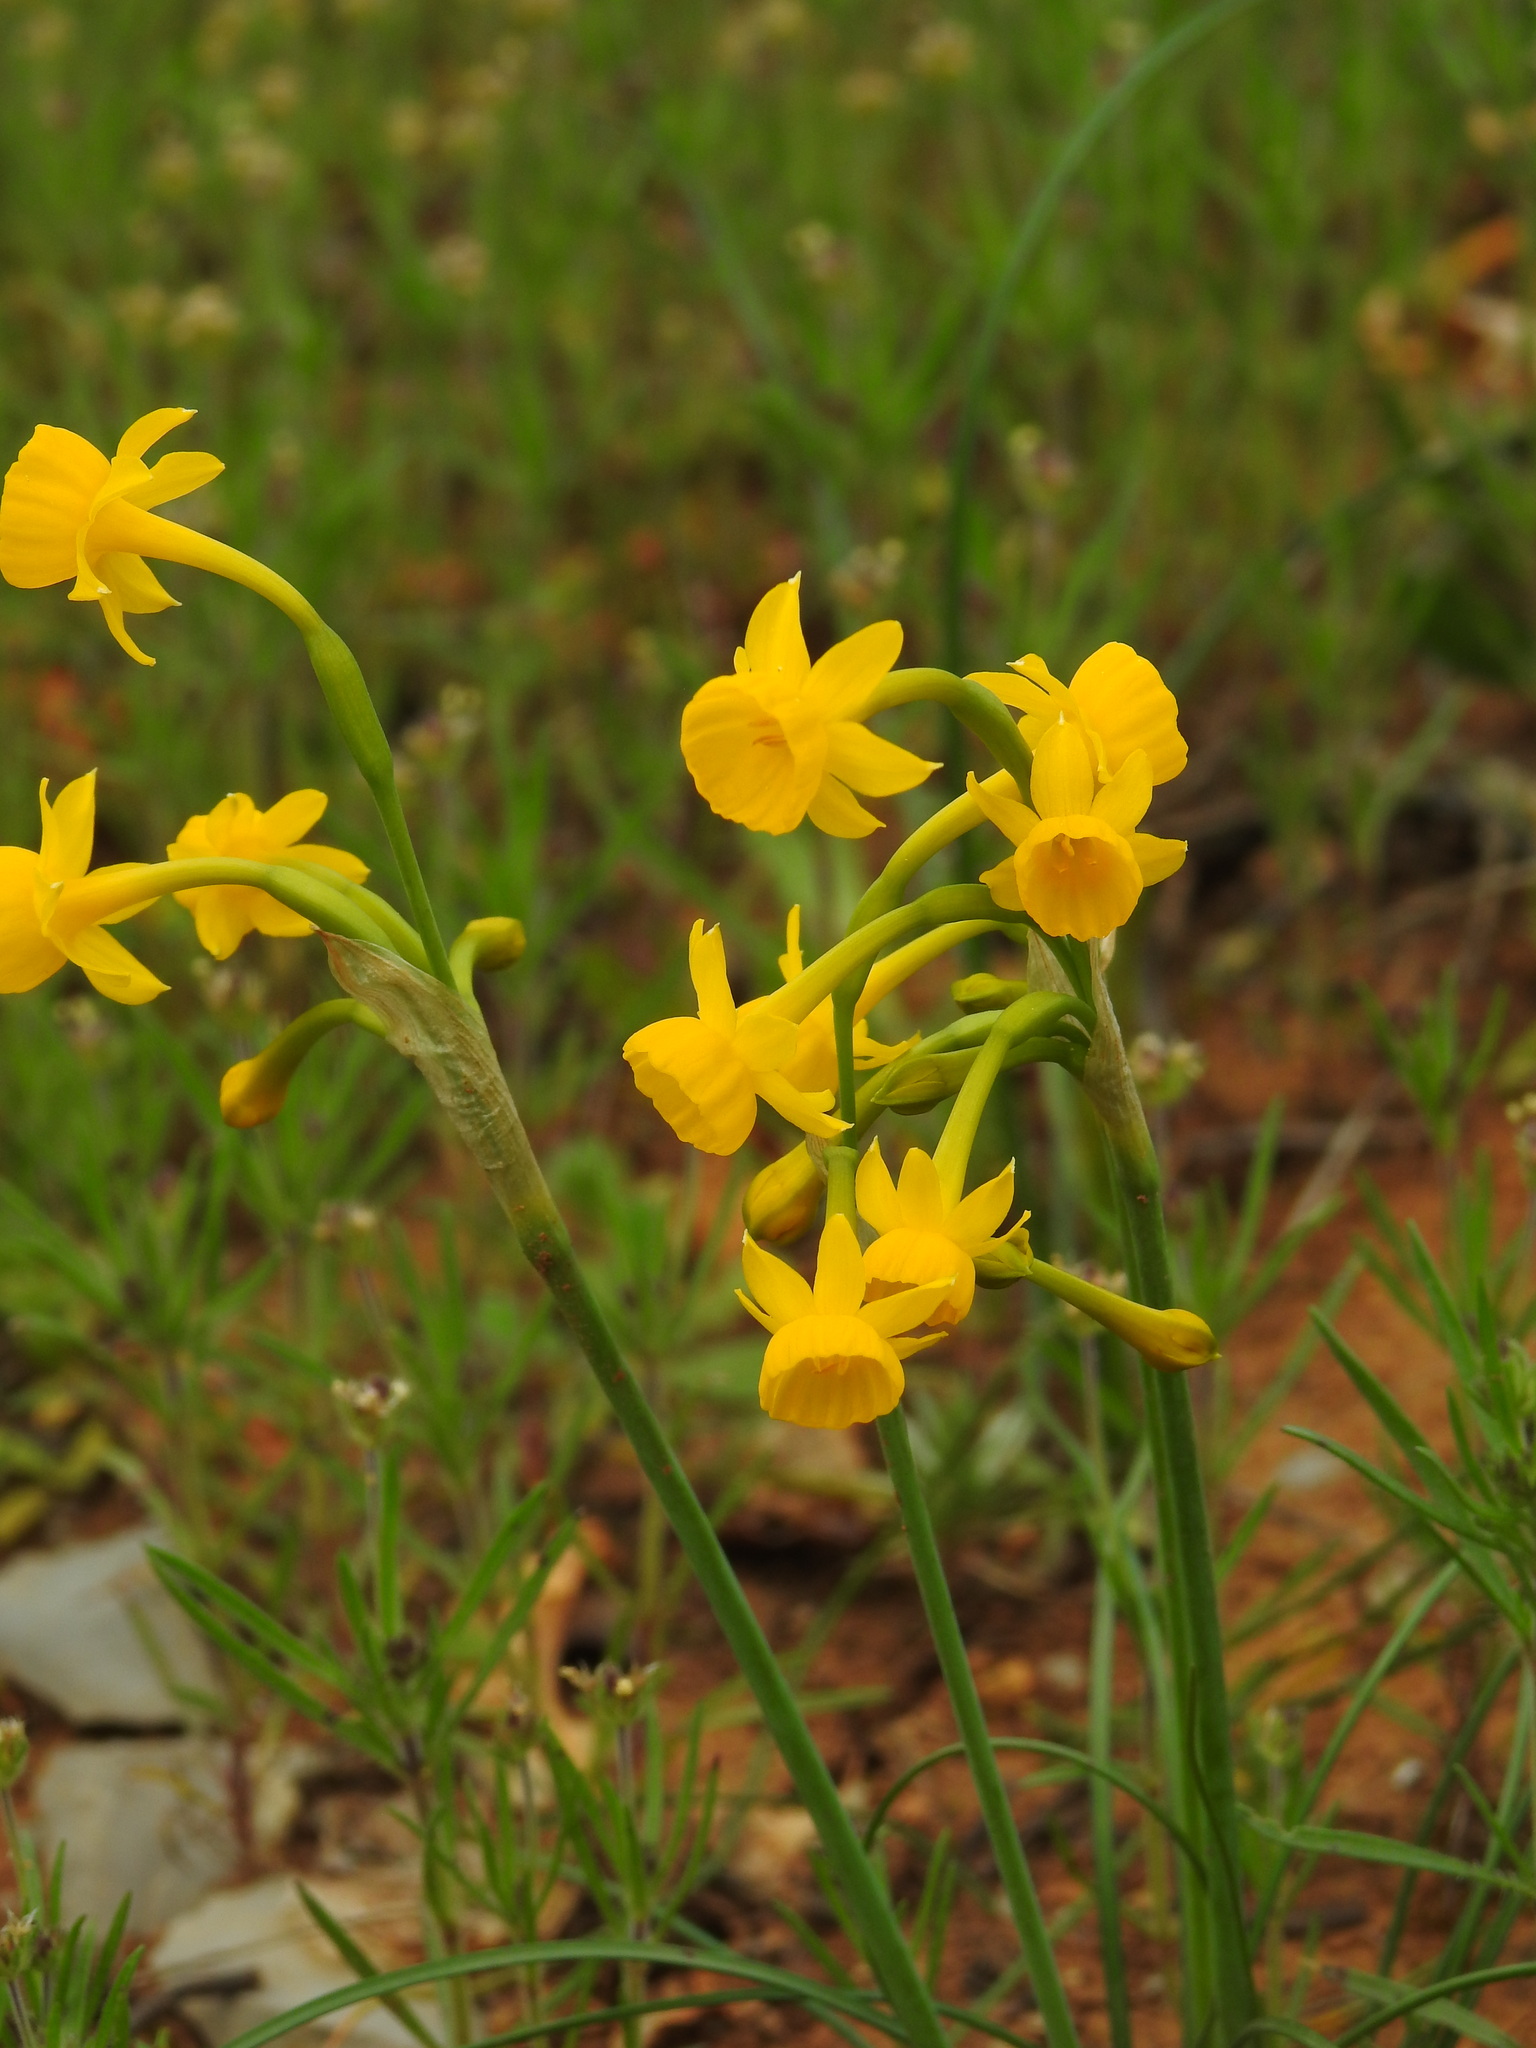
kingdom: Plantae
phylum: Tracheophyta
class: Liliopsida
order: Asparagales
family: Amaryllidaceae
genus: Narcissus
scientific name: Narcissus gaditanus
